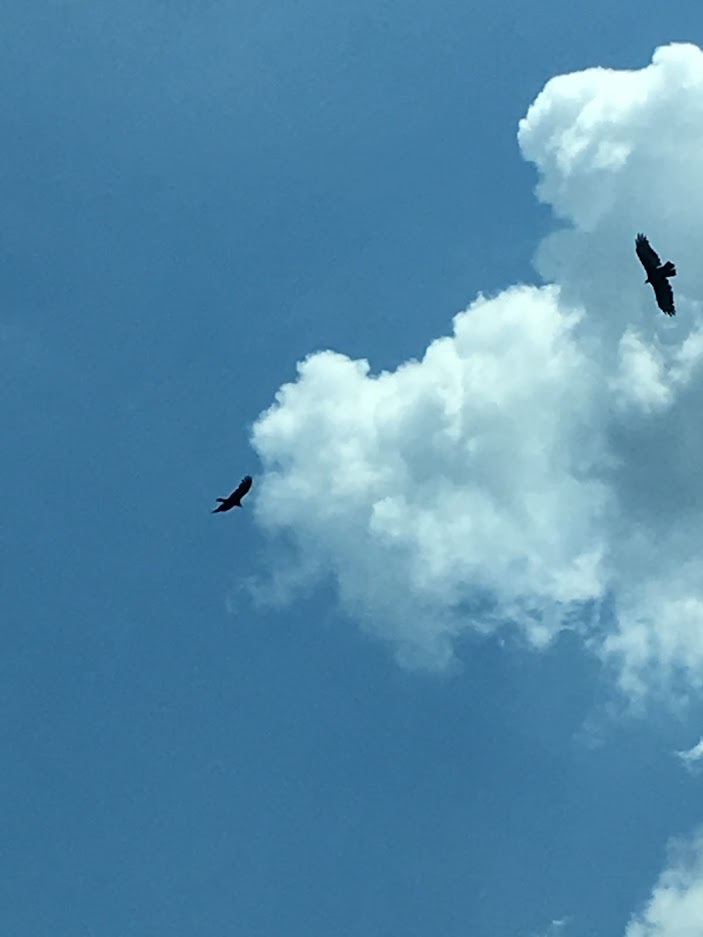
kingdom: Animalia
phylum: Chordata
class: Aves
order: Accipitriformes
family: Cathartidae
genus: Cathartes
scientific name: Cathartes aura
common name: Turkey vulture
